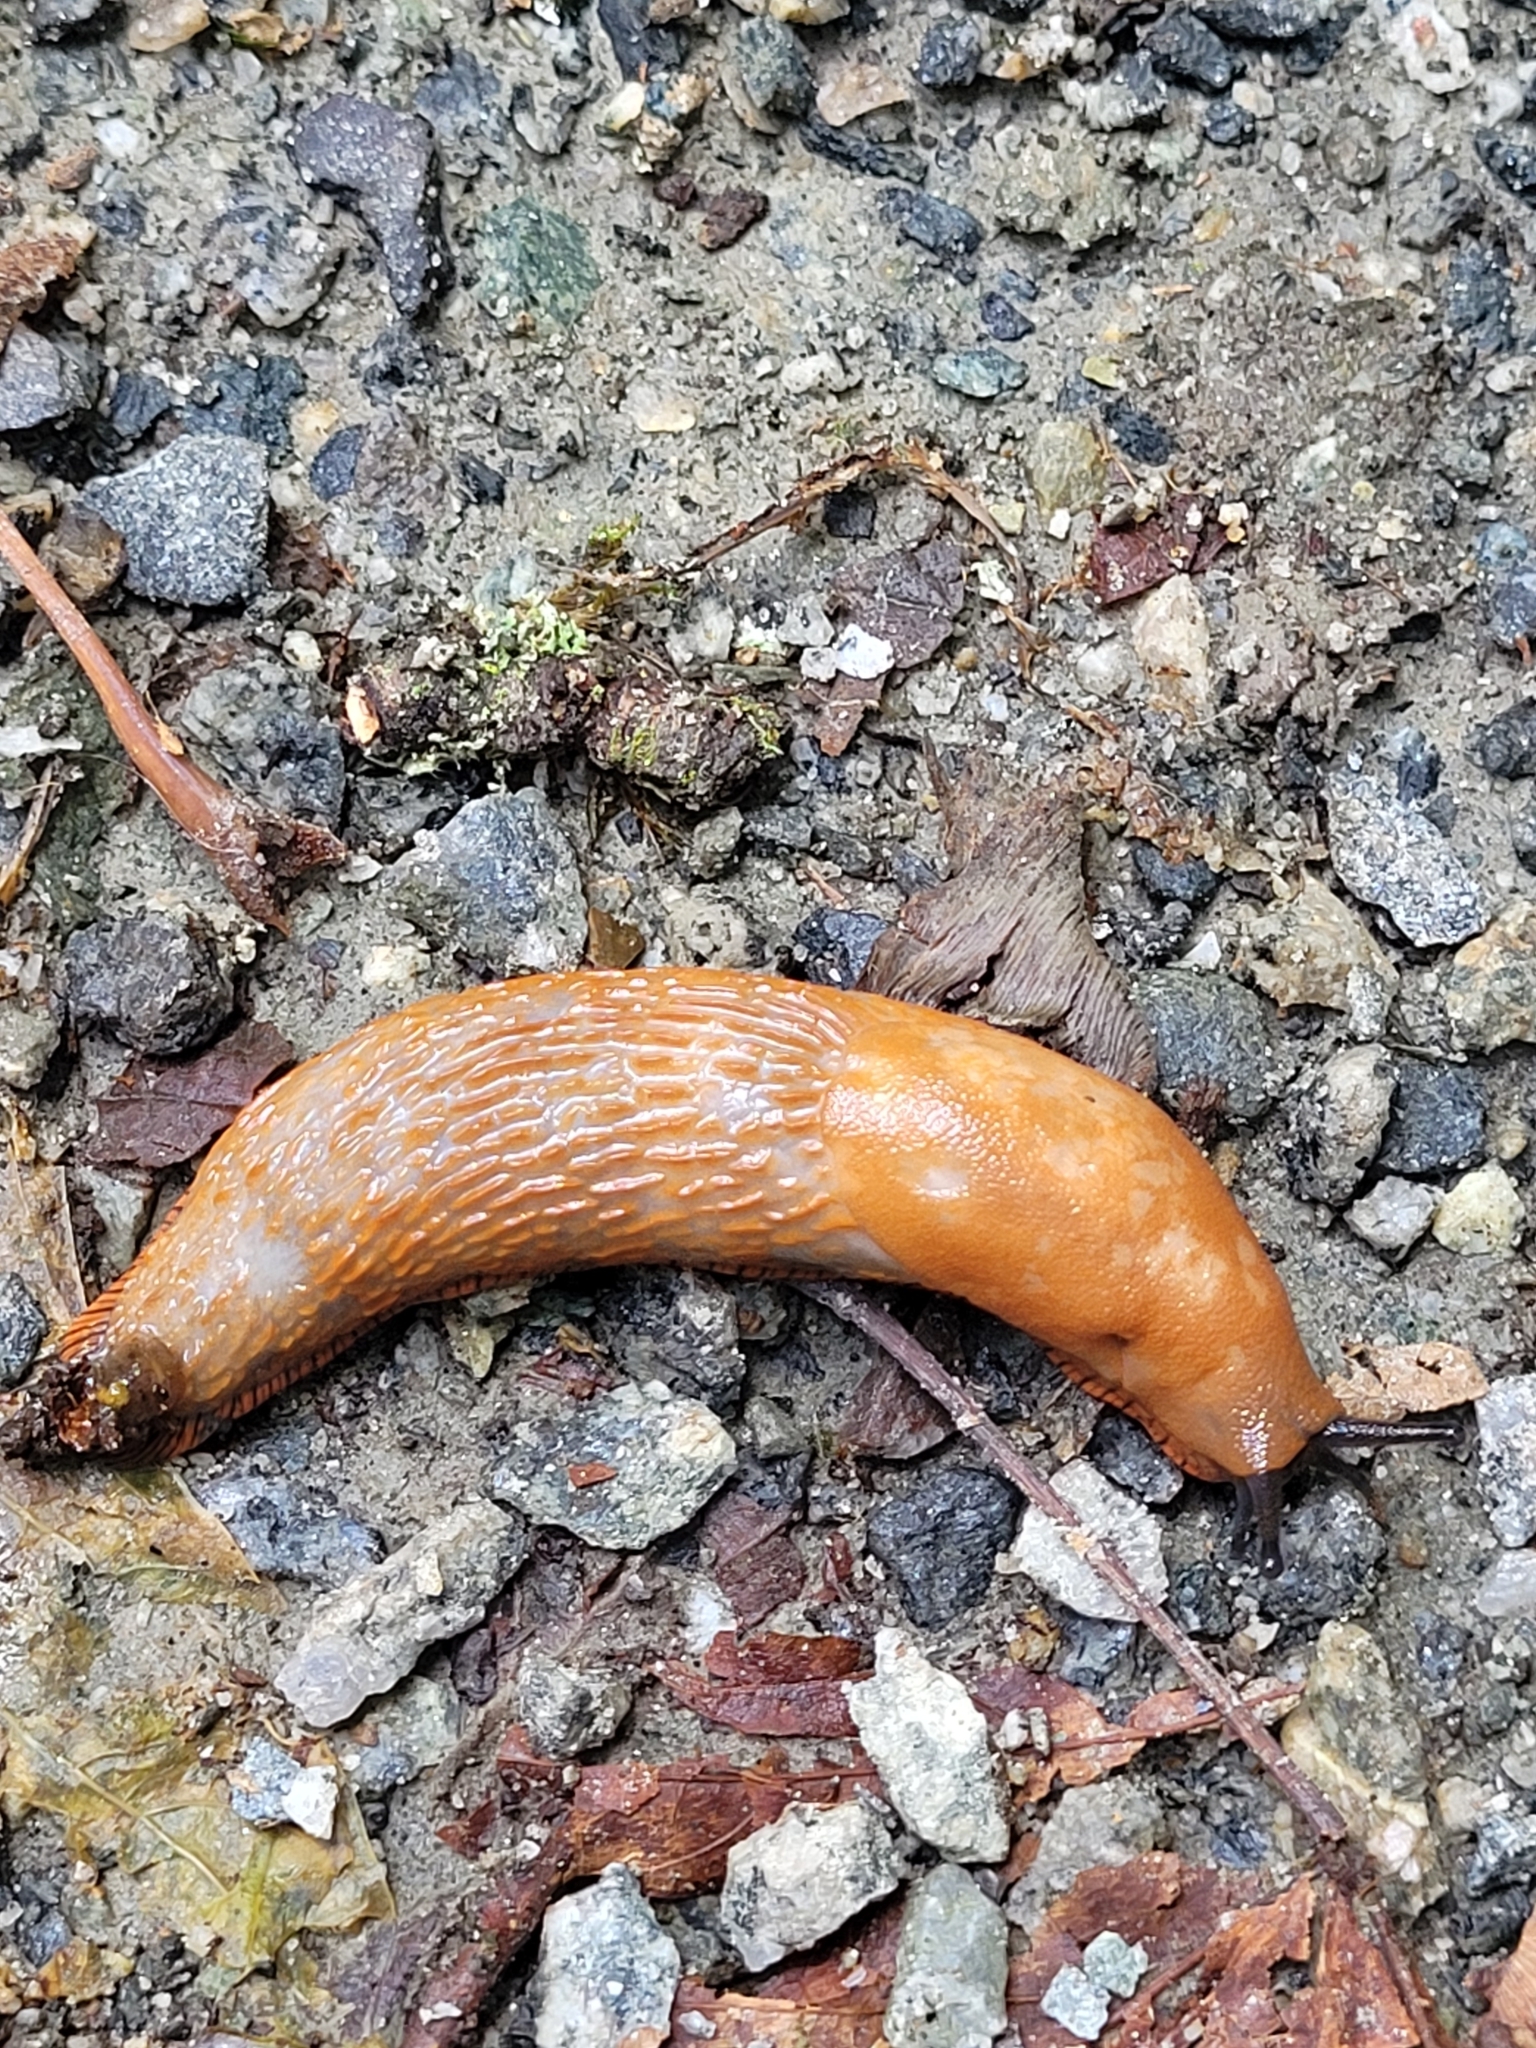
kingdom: Animalia
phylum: Mollusca
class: Gastropoda
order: Stylommatophora
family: Arionidae
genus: Arion
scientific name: Arion
